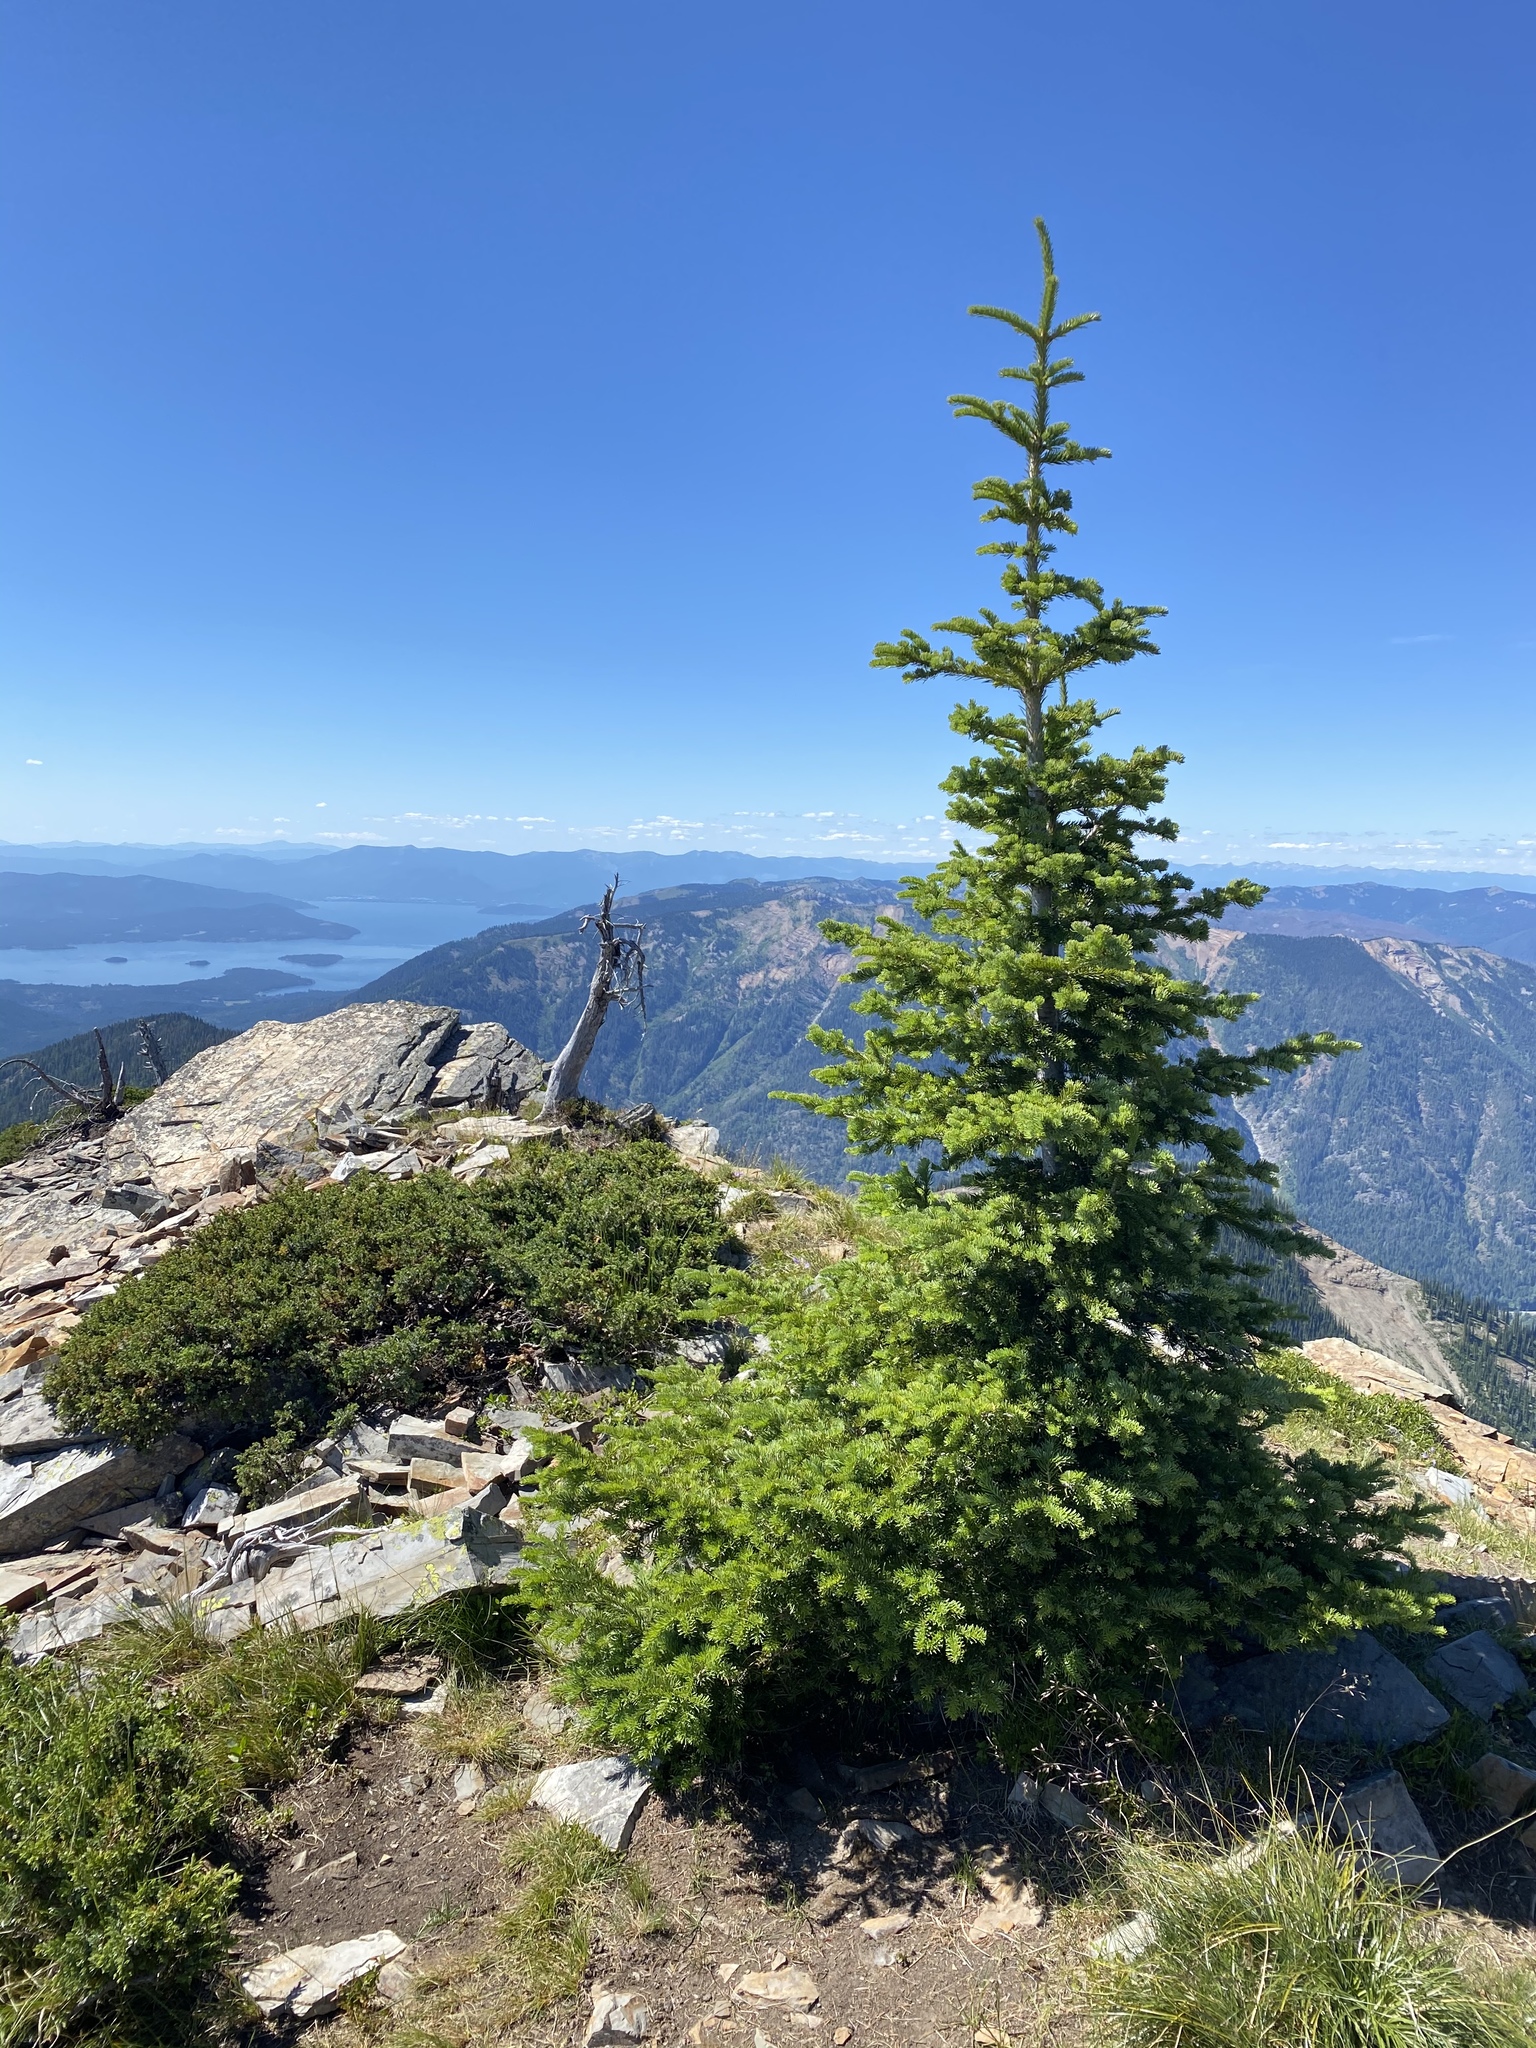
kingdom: Plantae
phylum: Tracheophyta
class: Pinopsida
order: Pinales
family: Pinaceae
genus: Abies
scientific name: Abies lasiocarpa
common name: Subalpine fir
